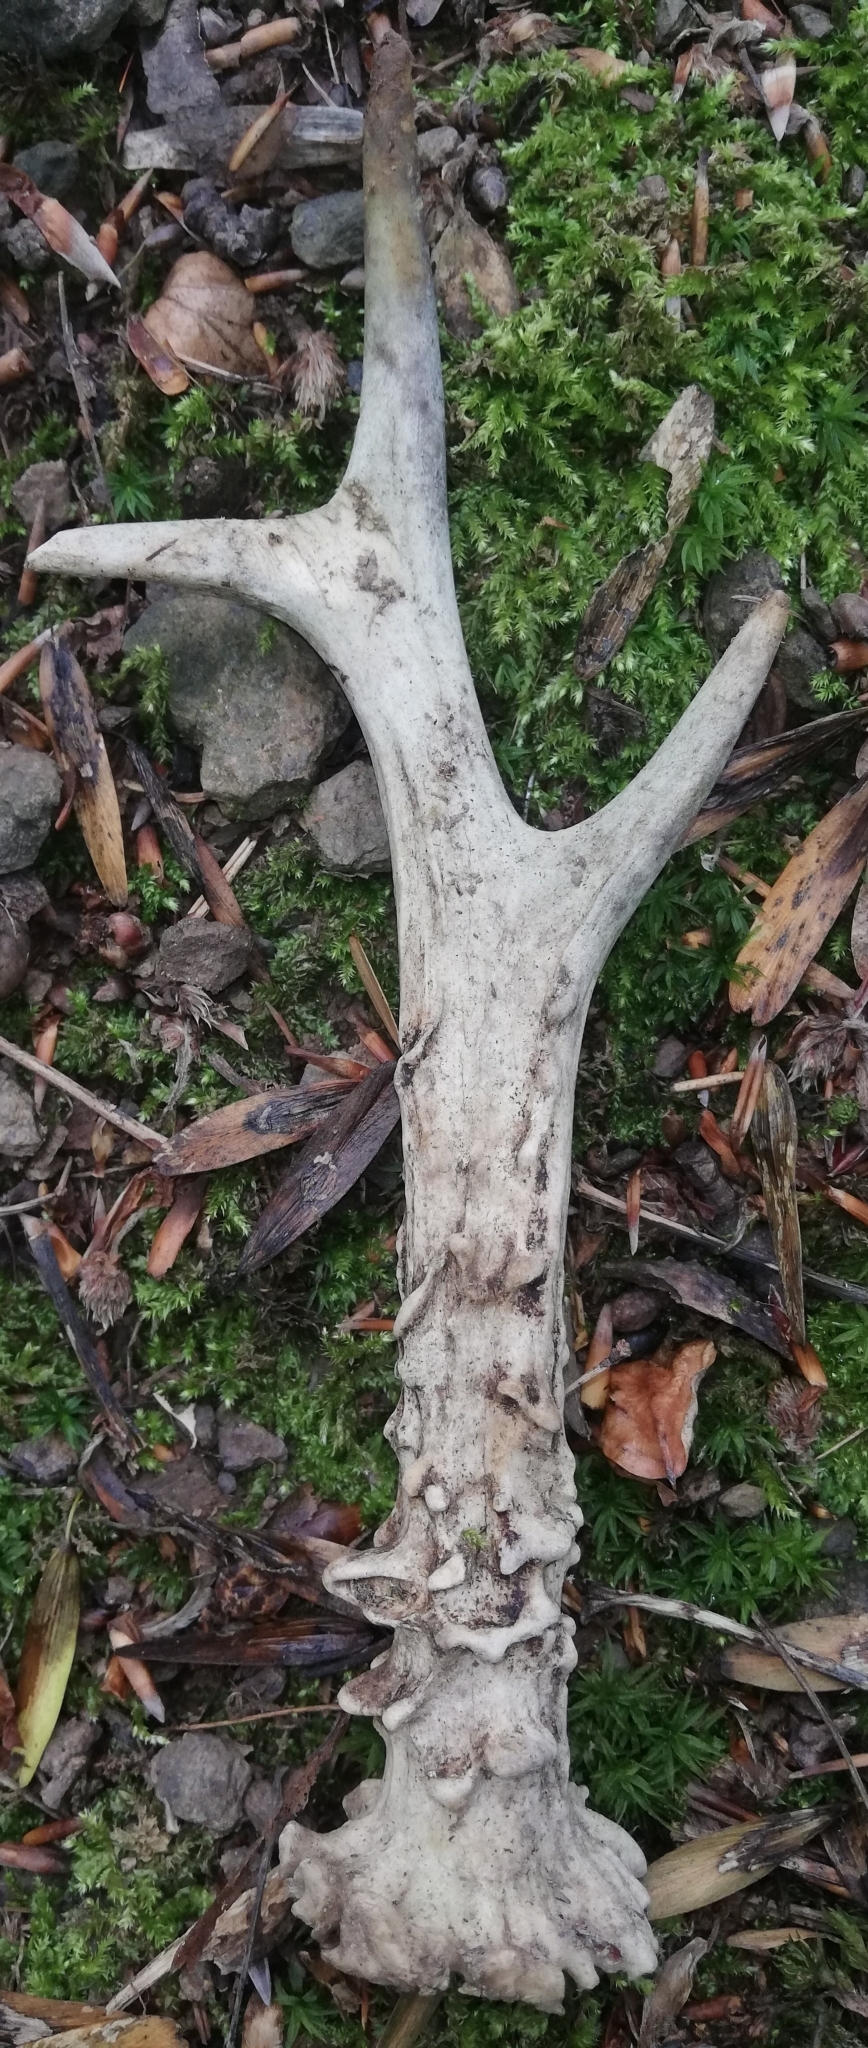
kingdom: Animalia
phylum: Chordata
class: Mammalia
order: Artiodactyla
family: Cervidae
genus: Capreolus
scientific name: Capreolus capreolus
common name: Western roe deer
